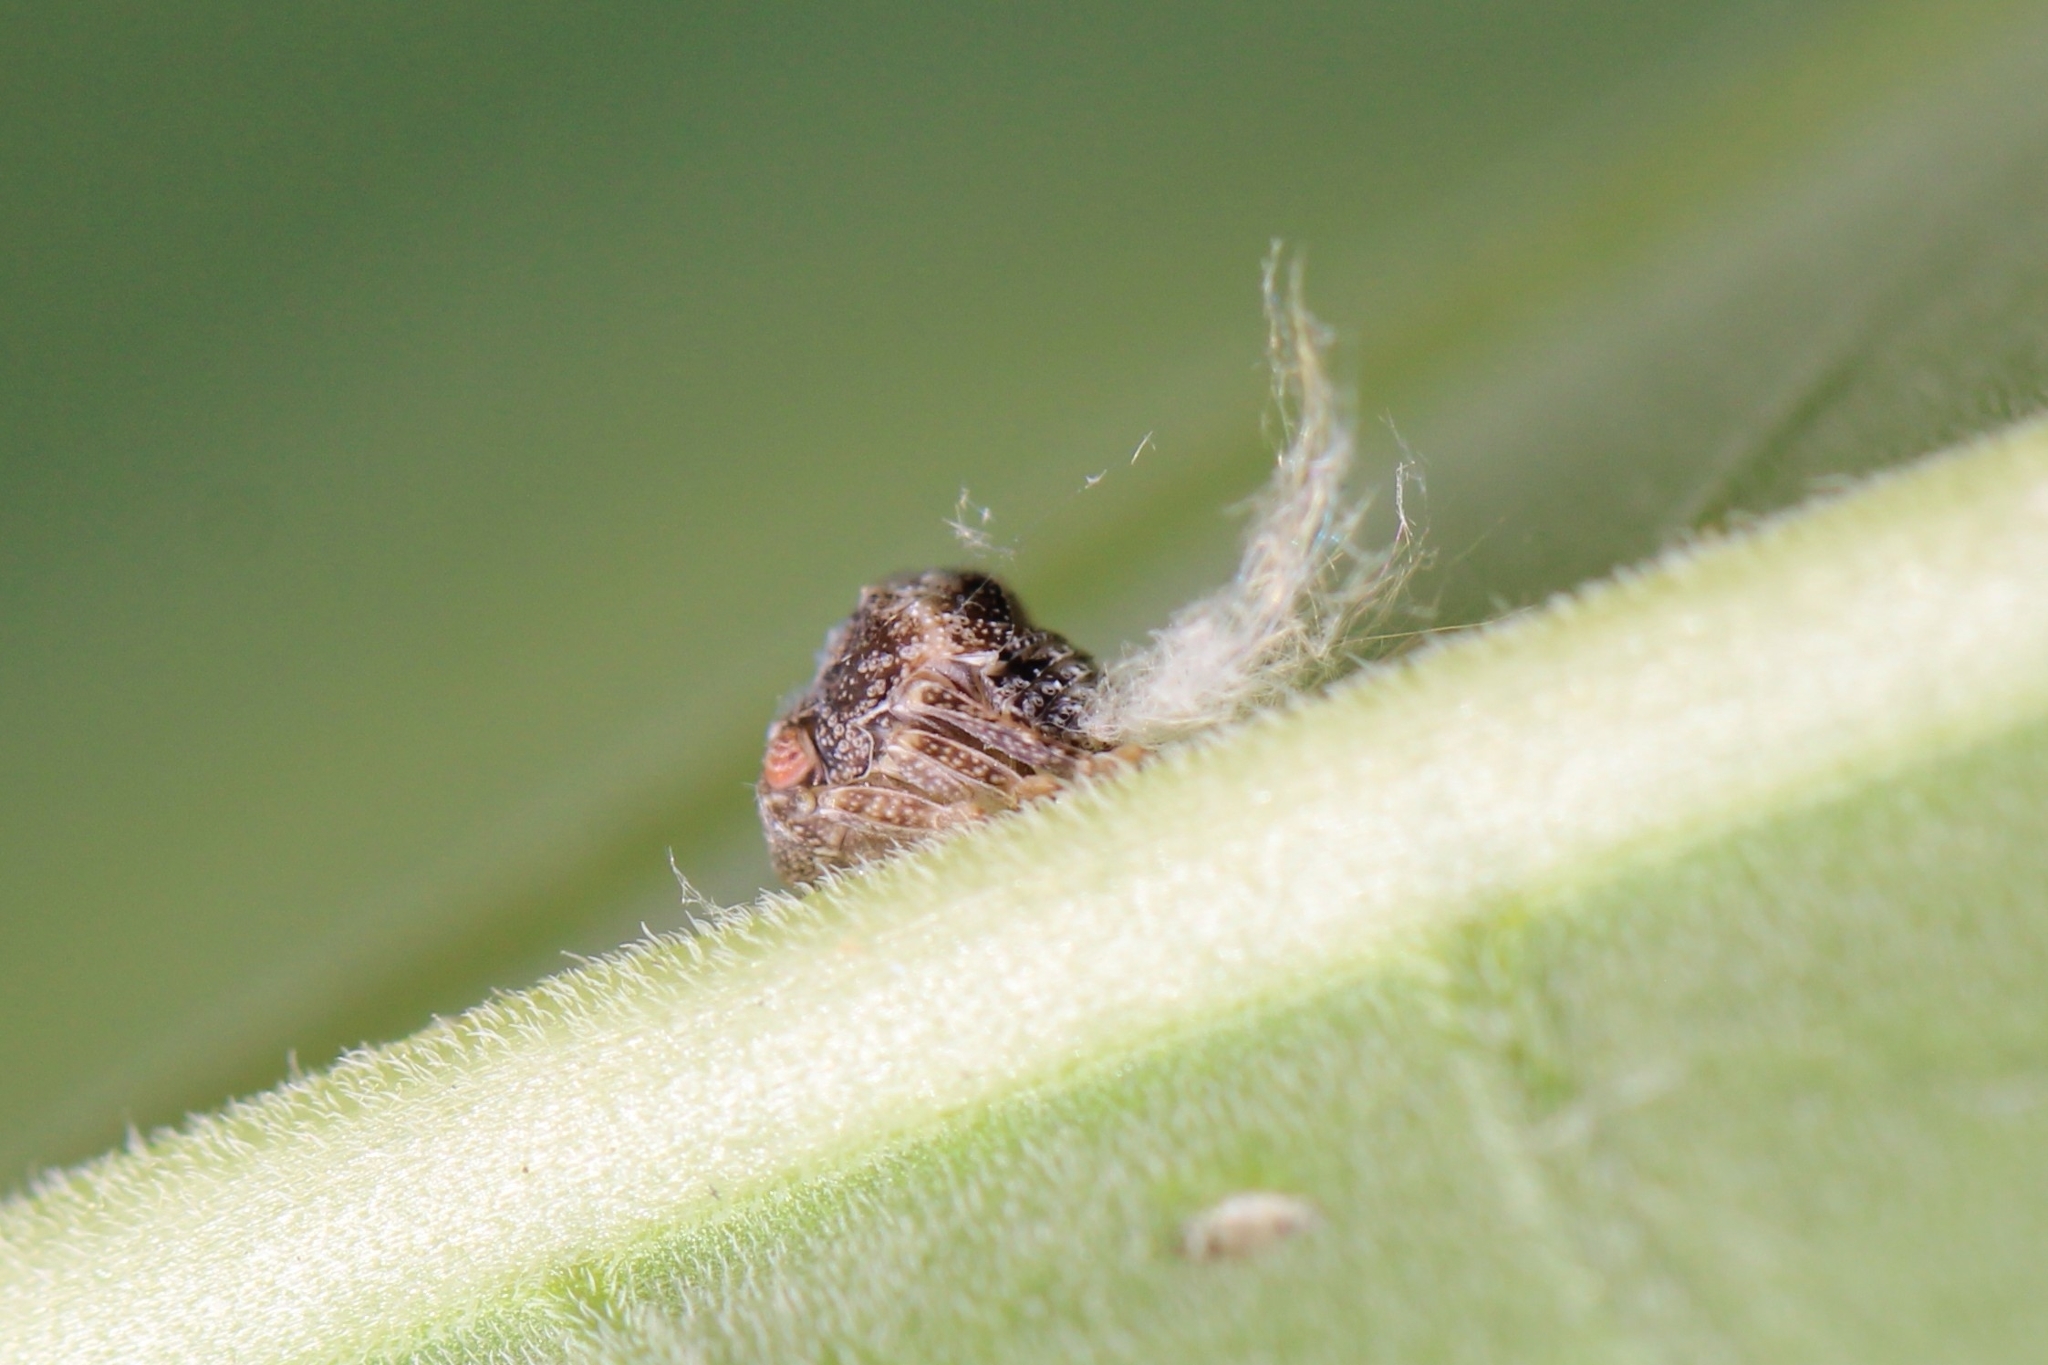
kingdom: Animalia
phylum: Arthropoda
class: Insecta
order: Hemiptera
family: Acanaloniidae
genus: Acanalonia
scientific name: Acanalonia bivittata
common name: Two-striped planthopper
